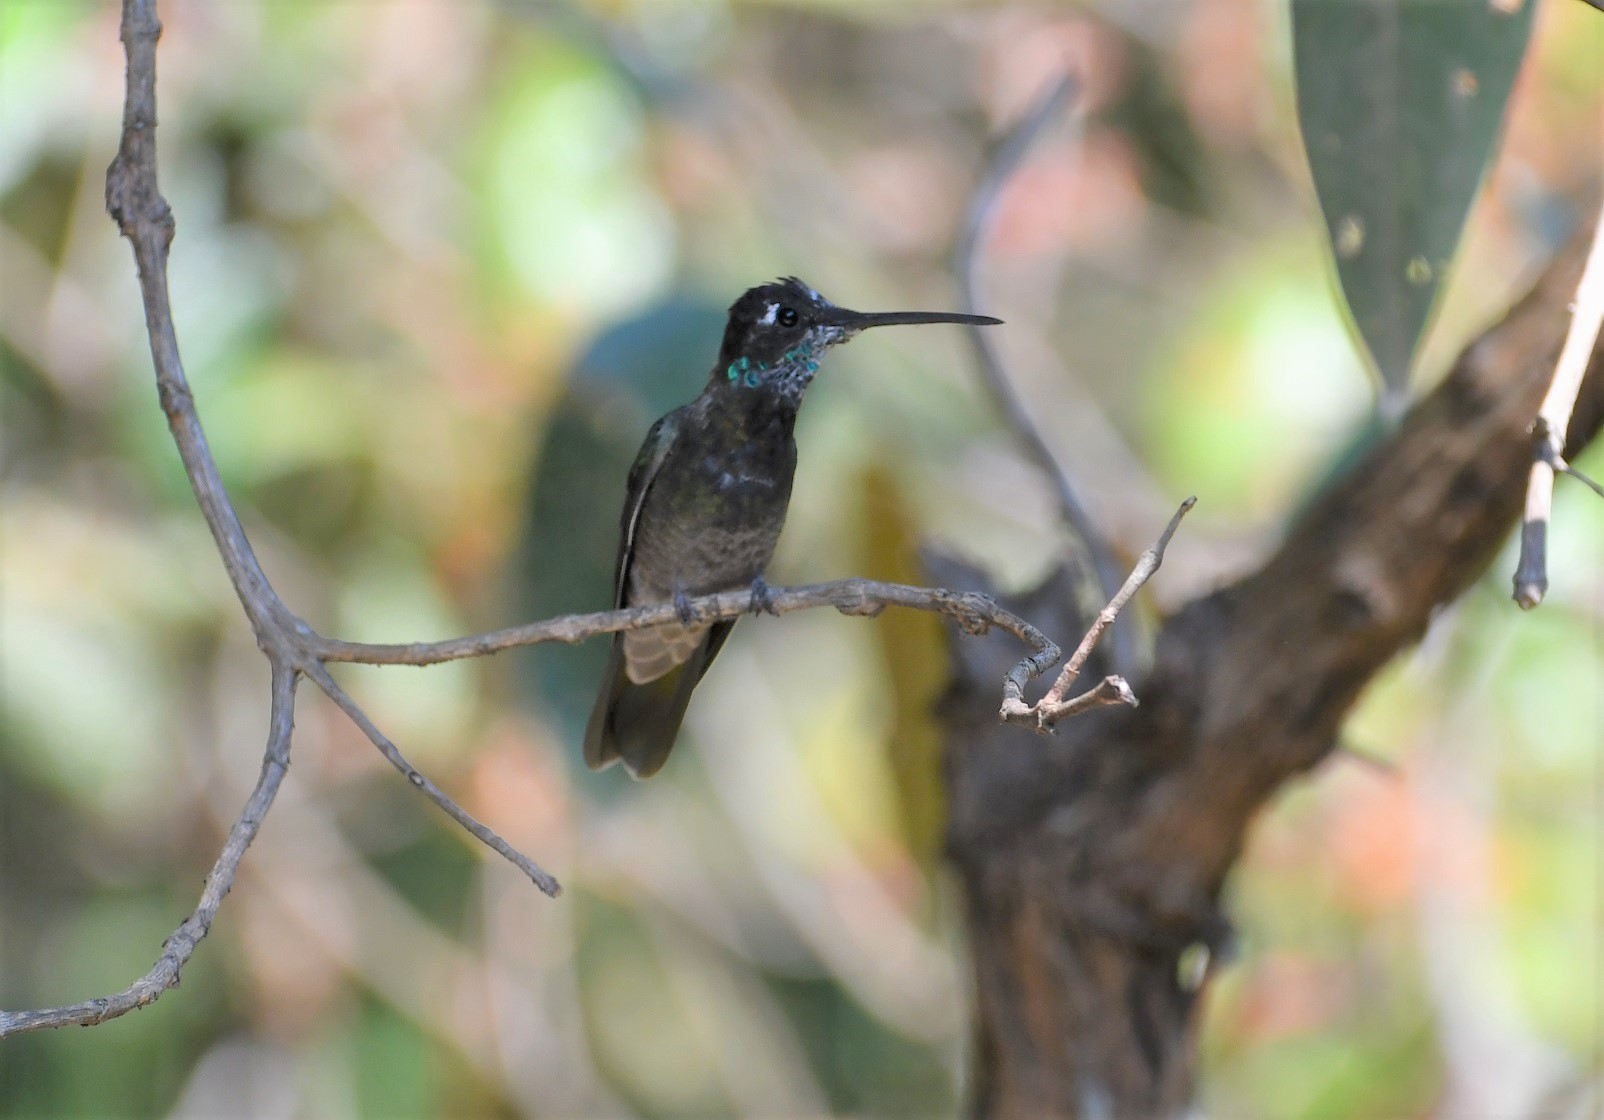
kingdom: Animalia
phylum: Chordata
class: Aves
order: Apodiformes
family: Trochilidae
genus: Eugenes
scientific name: Eugenes fulgens
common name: Magnificent hummingbird
